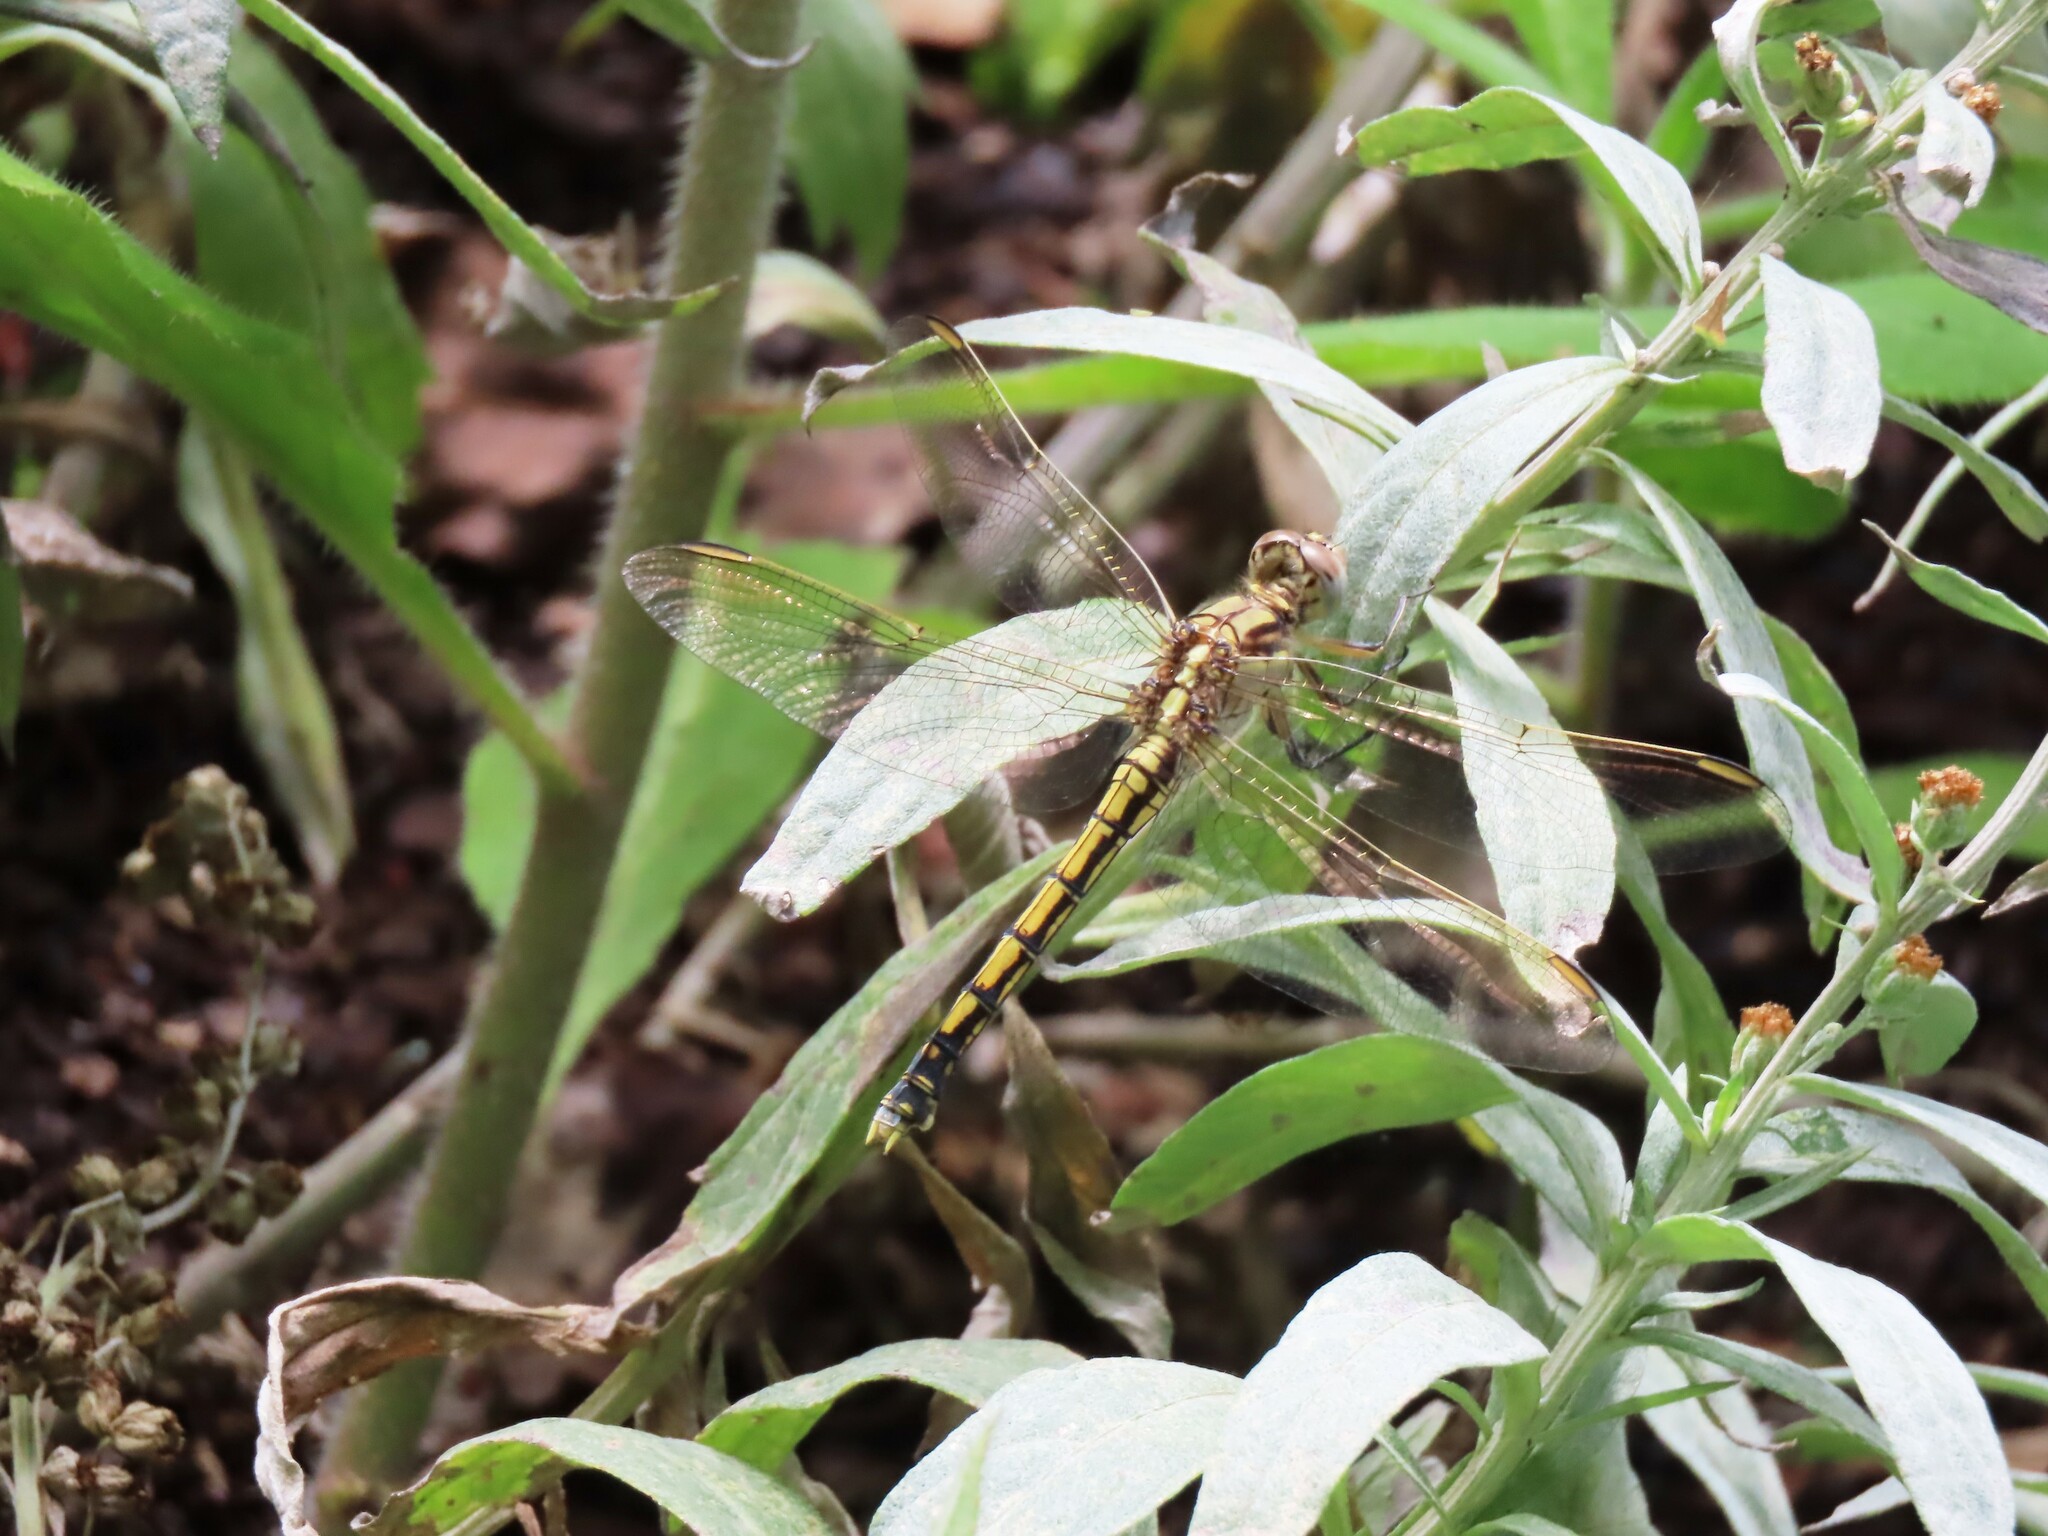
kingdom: Animalia
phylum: Arthropoda
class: Insecta
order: Odonata
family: Libellulidae
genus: Orthetrum
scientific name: Orthetrum caledonicum
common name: Blue skimmer
